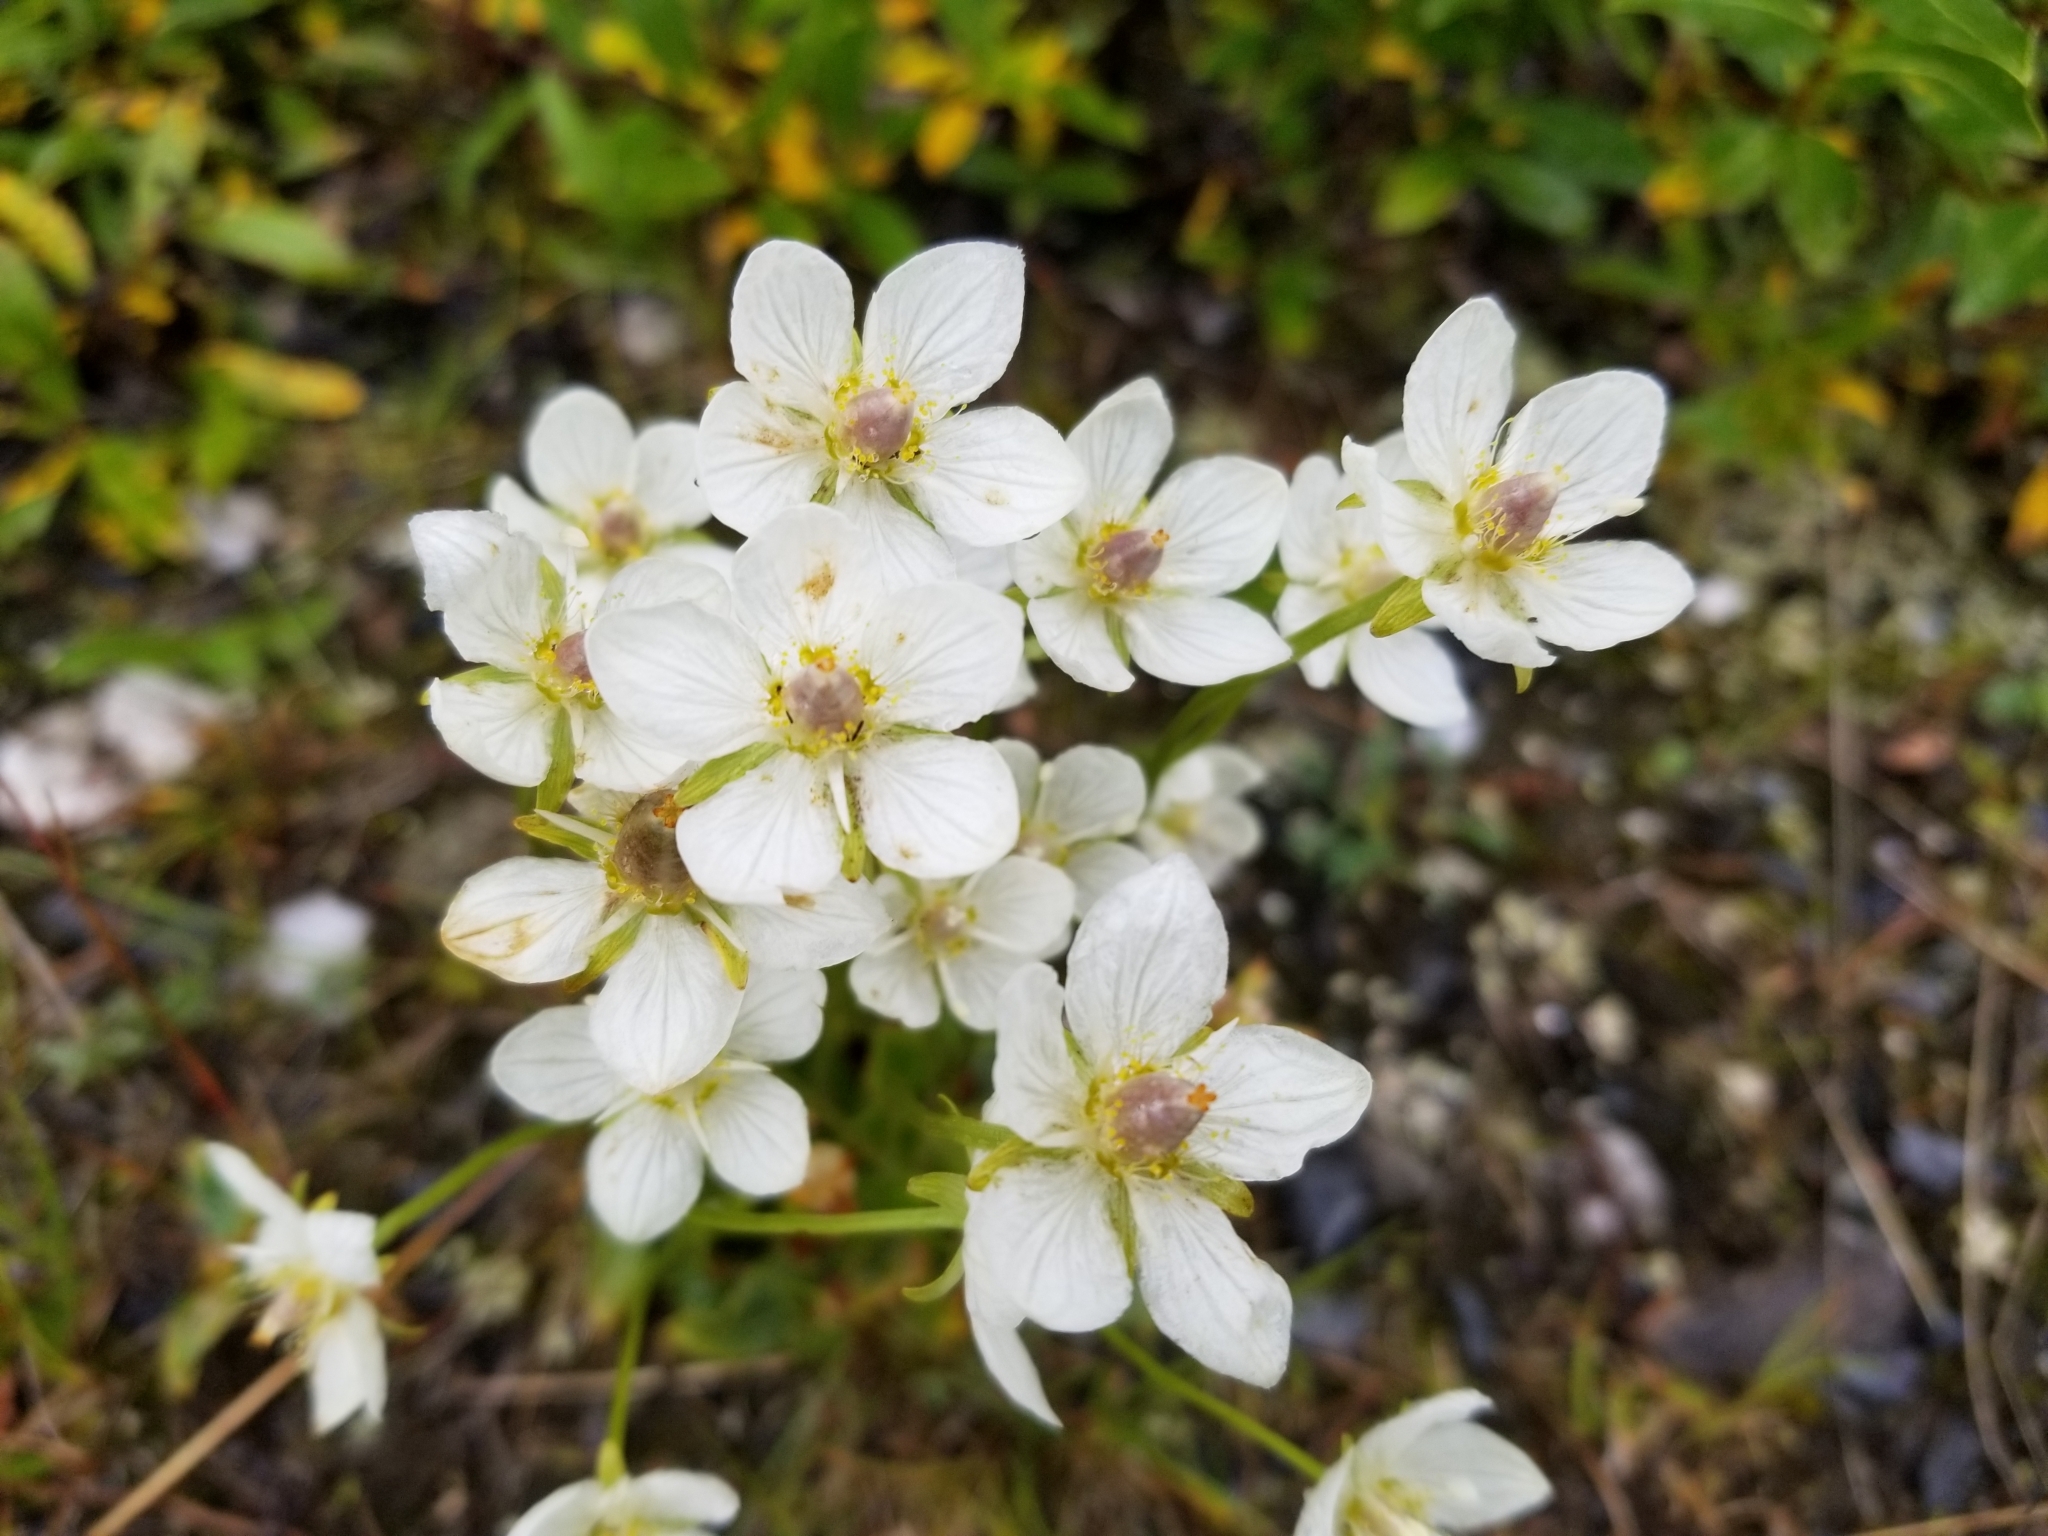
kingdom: Plantae
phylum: Tracheophyta
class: Magnoliopsida
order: Celastrales
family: Parnassiaceae
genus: Parnassia
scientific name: Parnassia palustris
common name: Grass-of-parnassus
